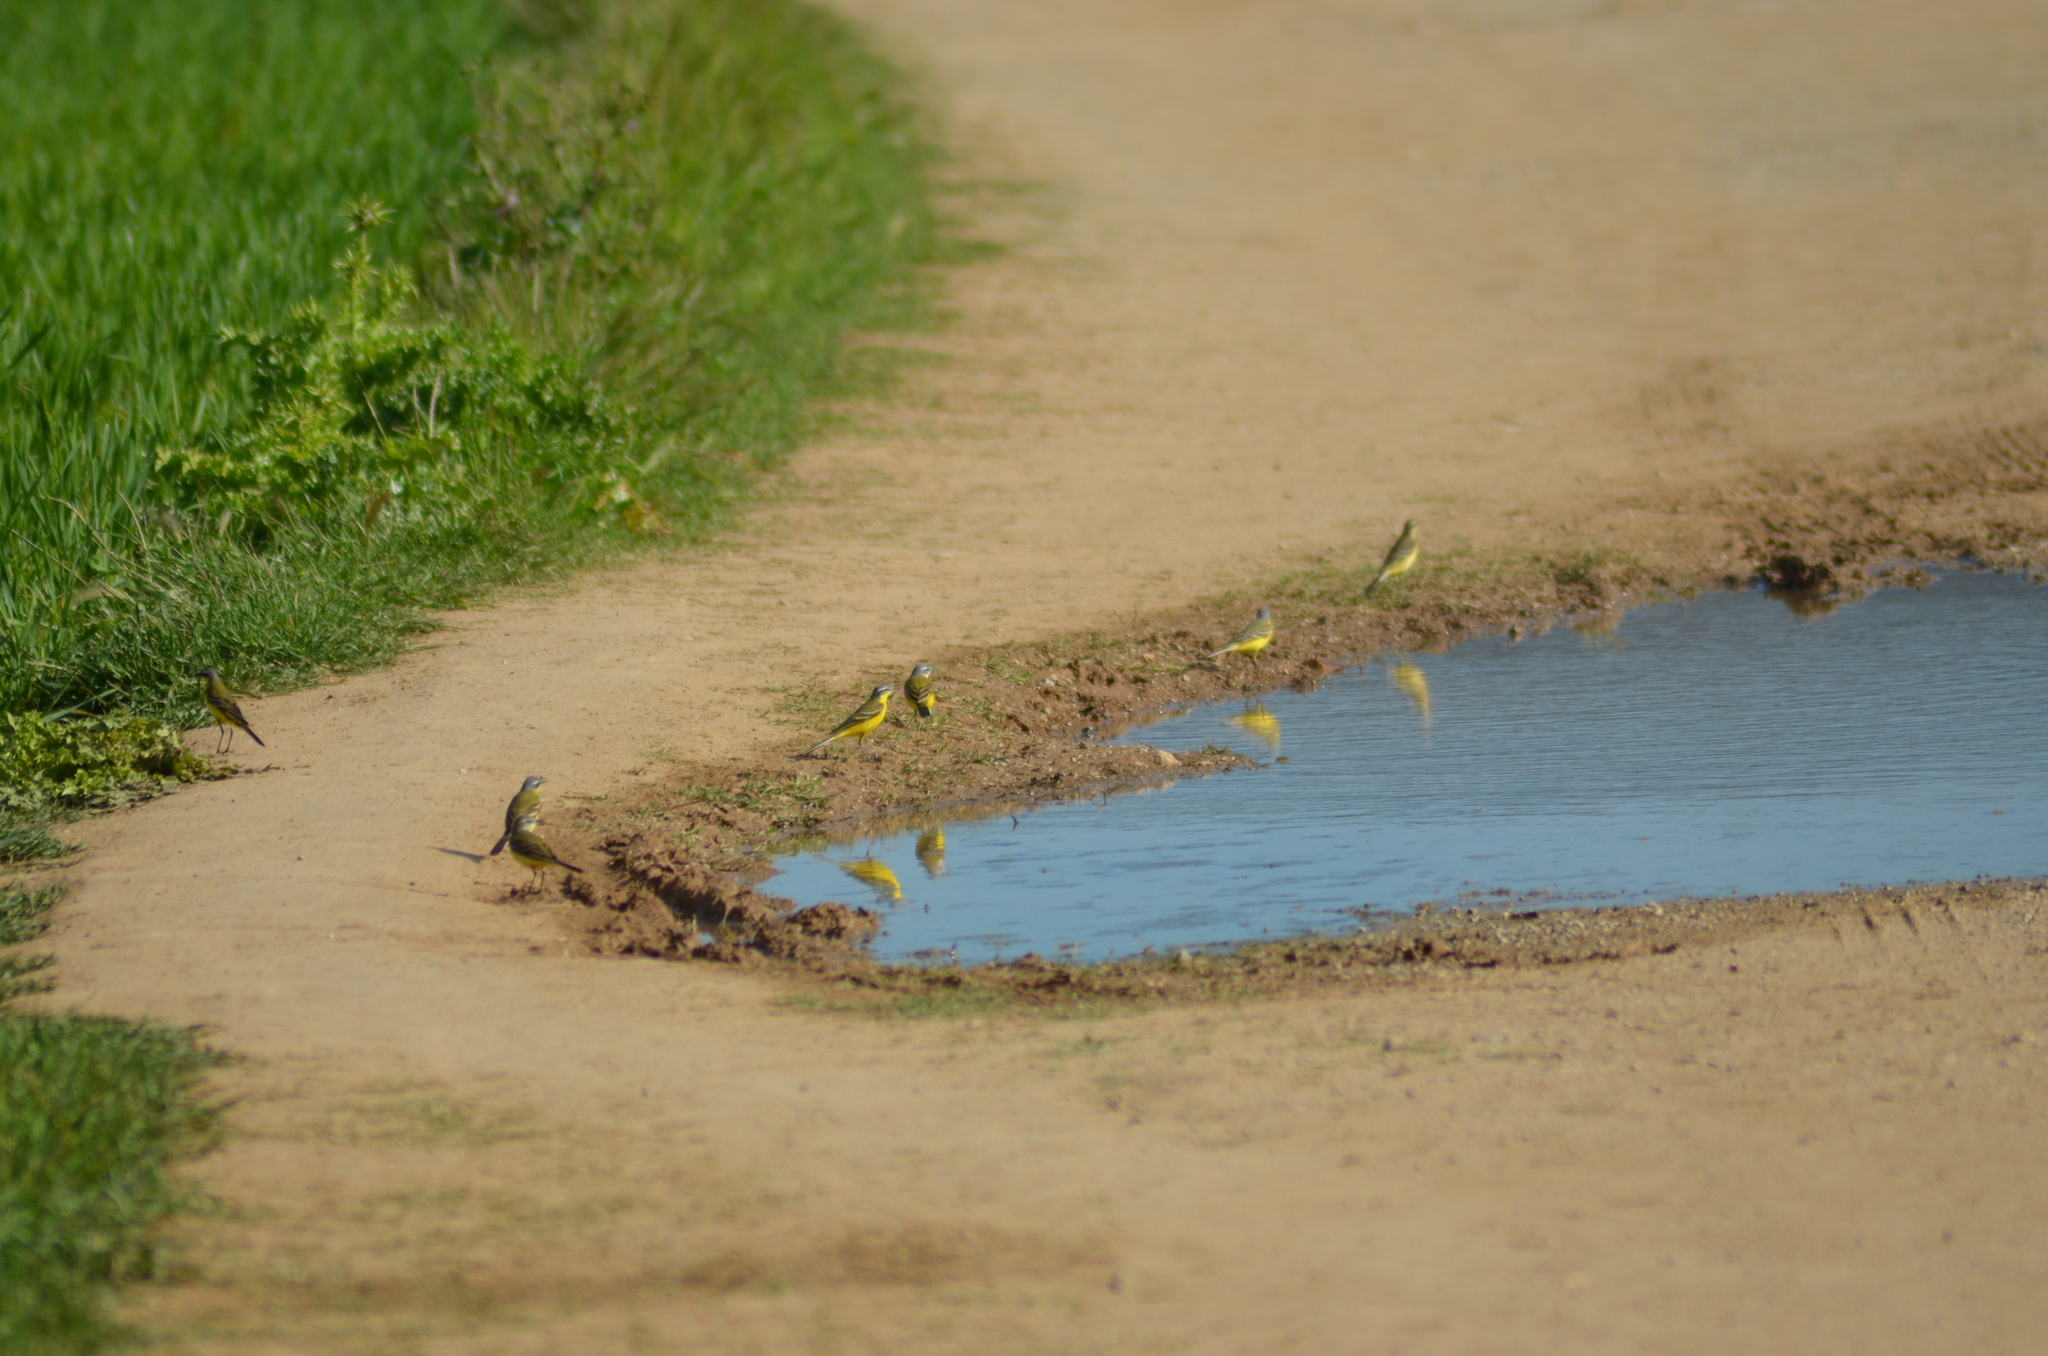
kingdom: Animalia
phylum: Chordata
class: Aves
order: Passeriformes
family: Motacillidae
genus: Motacilla
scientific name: Motacilla flava
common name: Western yellow wagtail
